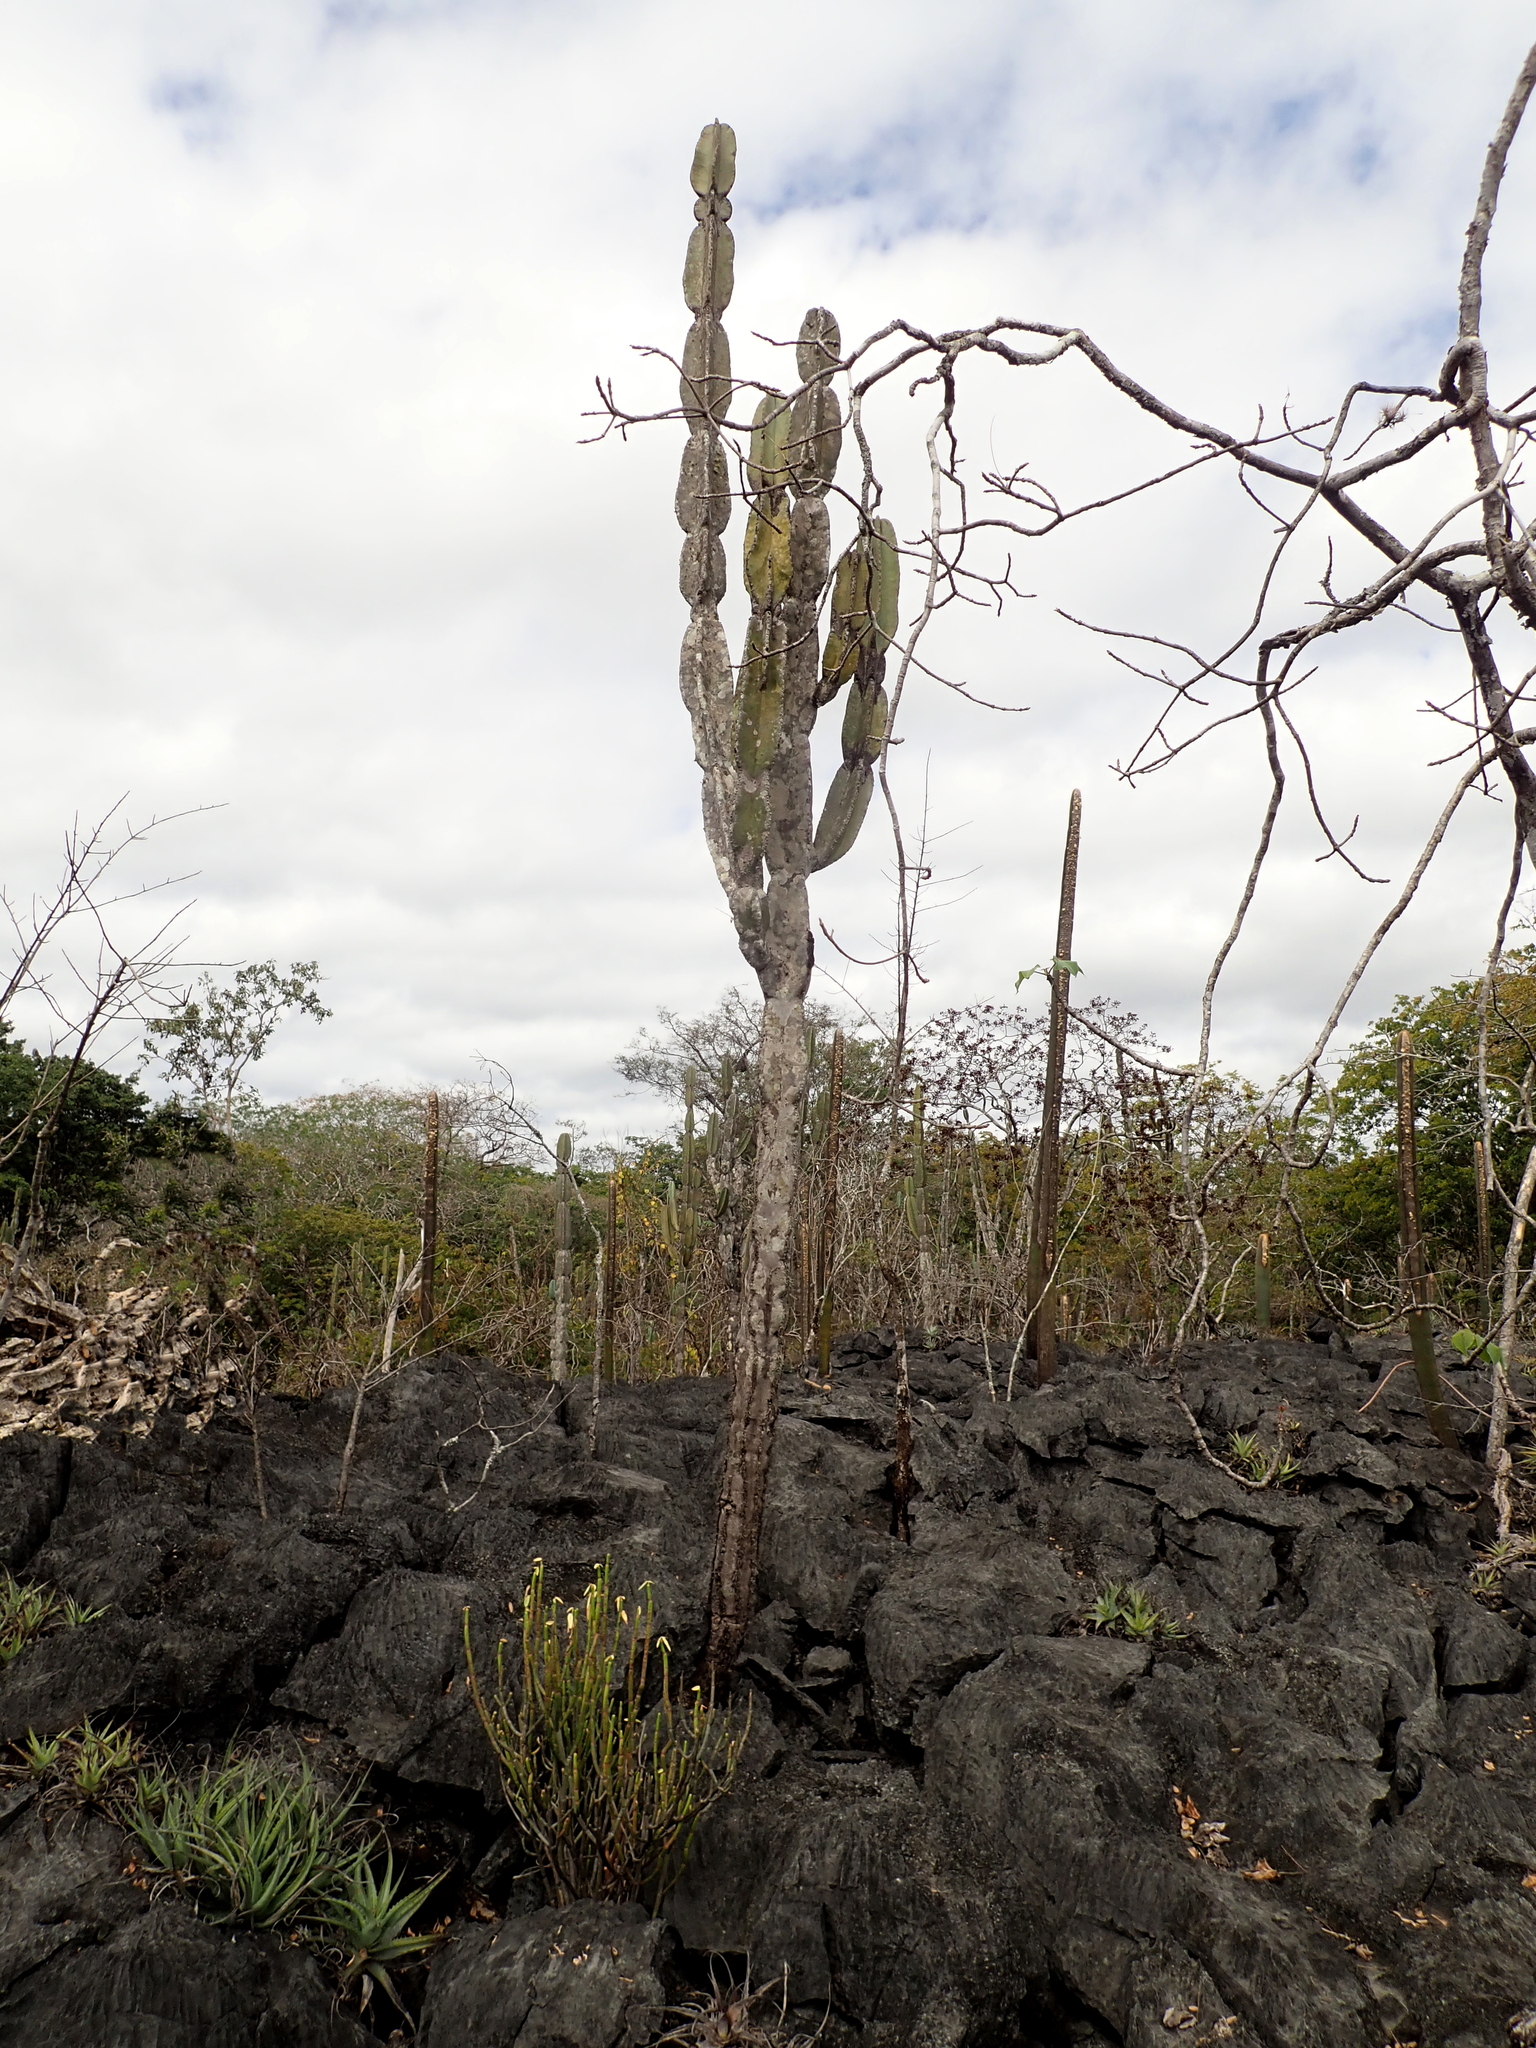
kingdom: Plantae
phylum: Tracheophyta
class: Magnoliopsida
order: Caryophyllales
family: Cactaceae
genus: Cereus
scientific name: Cereus pierre-braunianus
